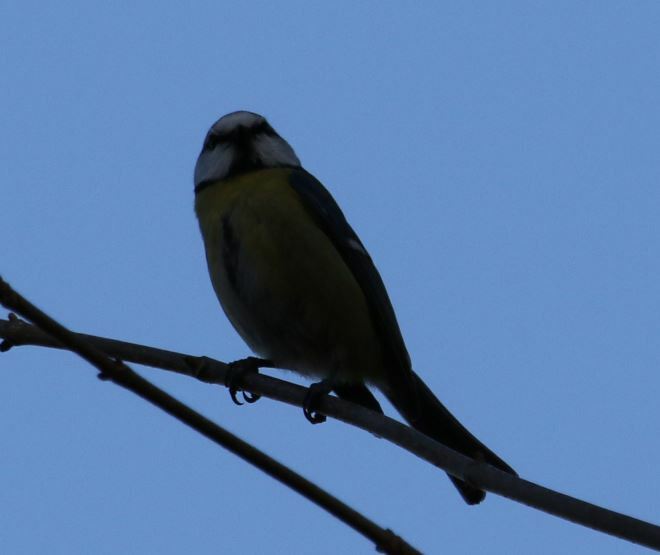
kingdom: Animalia
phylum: Chordata
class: Aves
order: Passeriformes
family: Paridae
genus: Cyanistes
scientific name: Cyanistes caeruleus
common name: Eurasian blue tit
